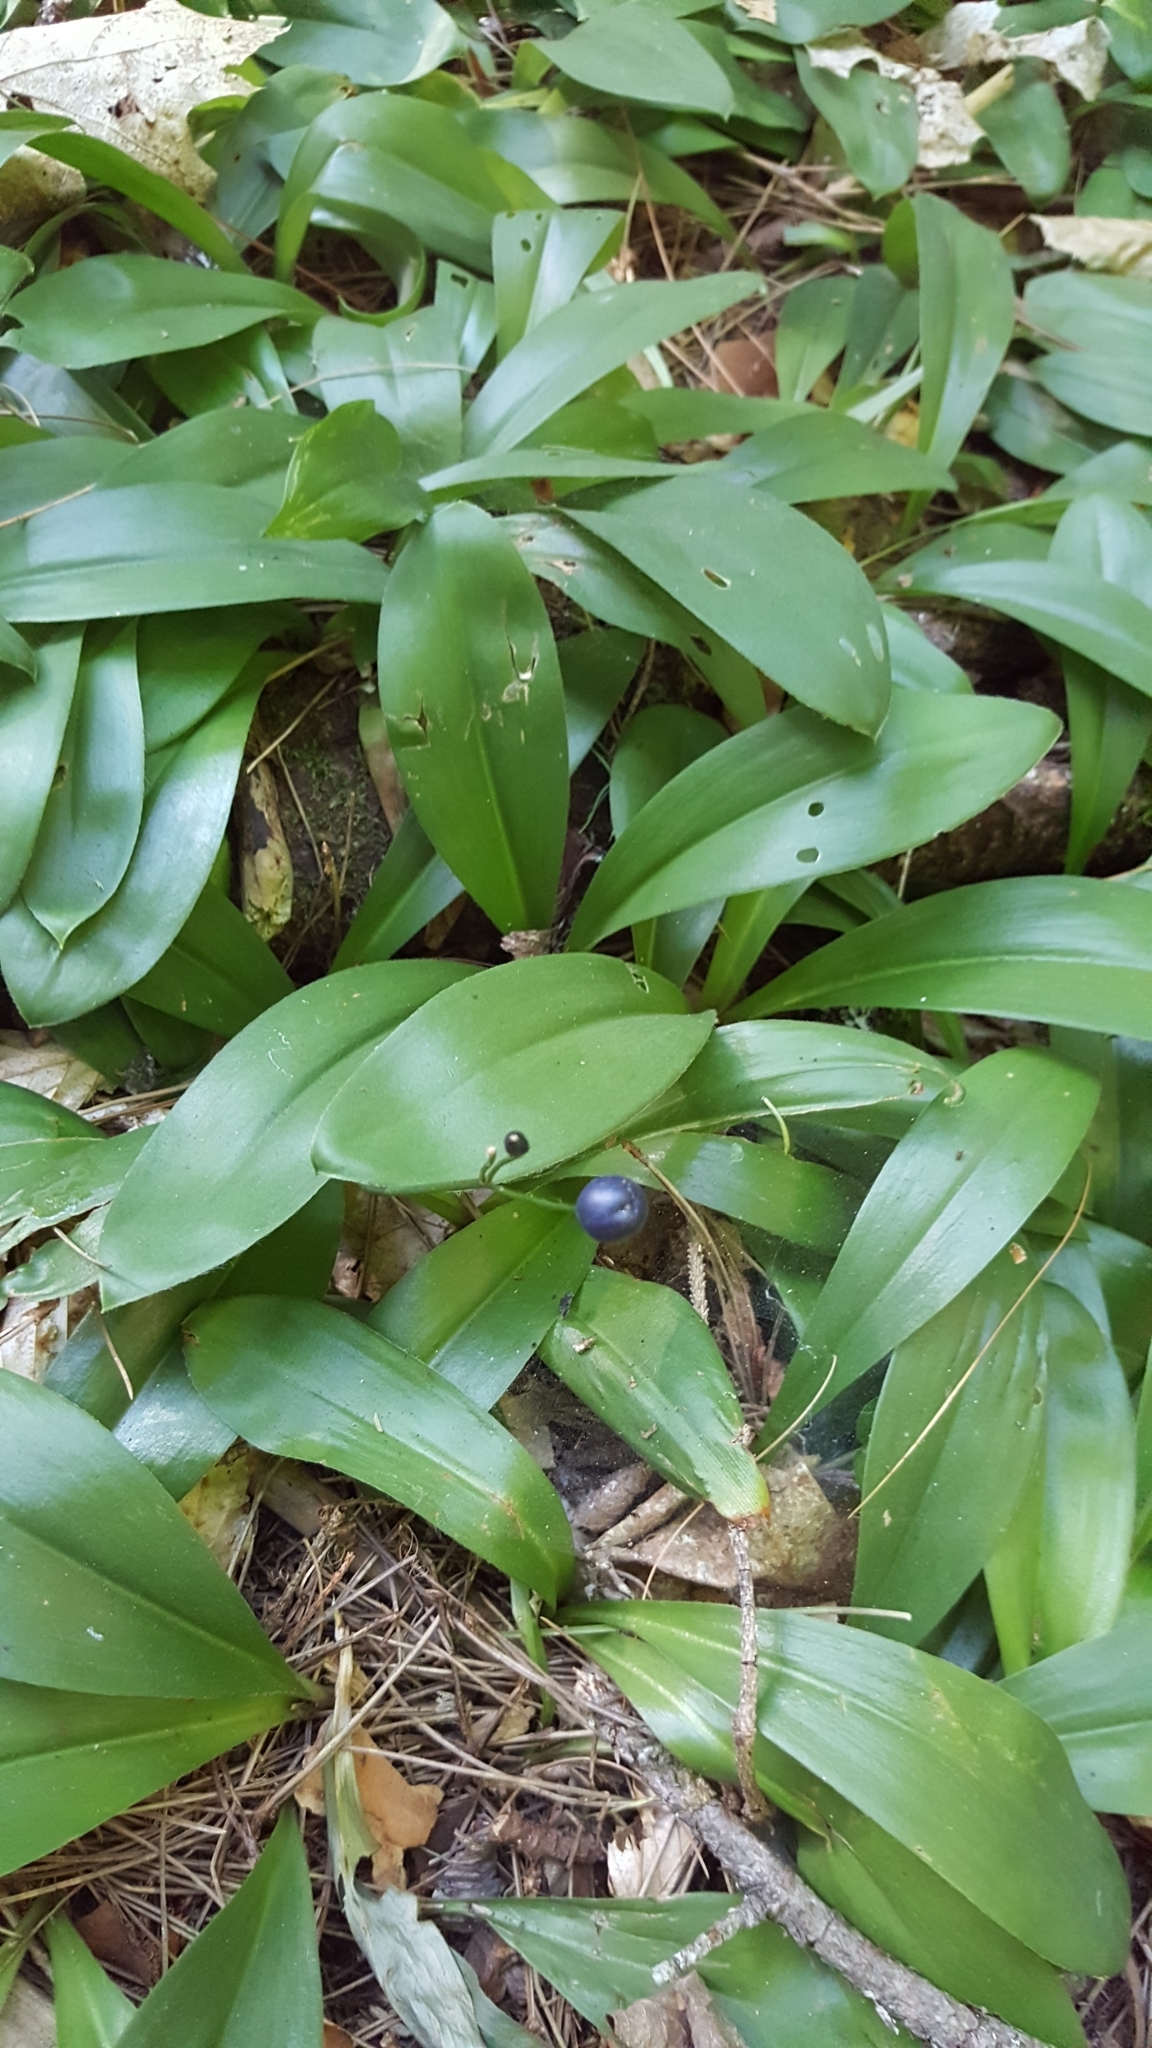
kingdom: Plantae
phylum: Tracheophyta
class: Liliopsida
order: Liliales
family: Liliaceae
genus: Clintonia
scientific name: Clintonia borealis
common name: Yellow clintonia
